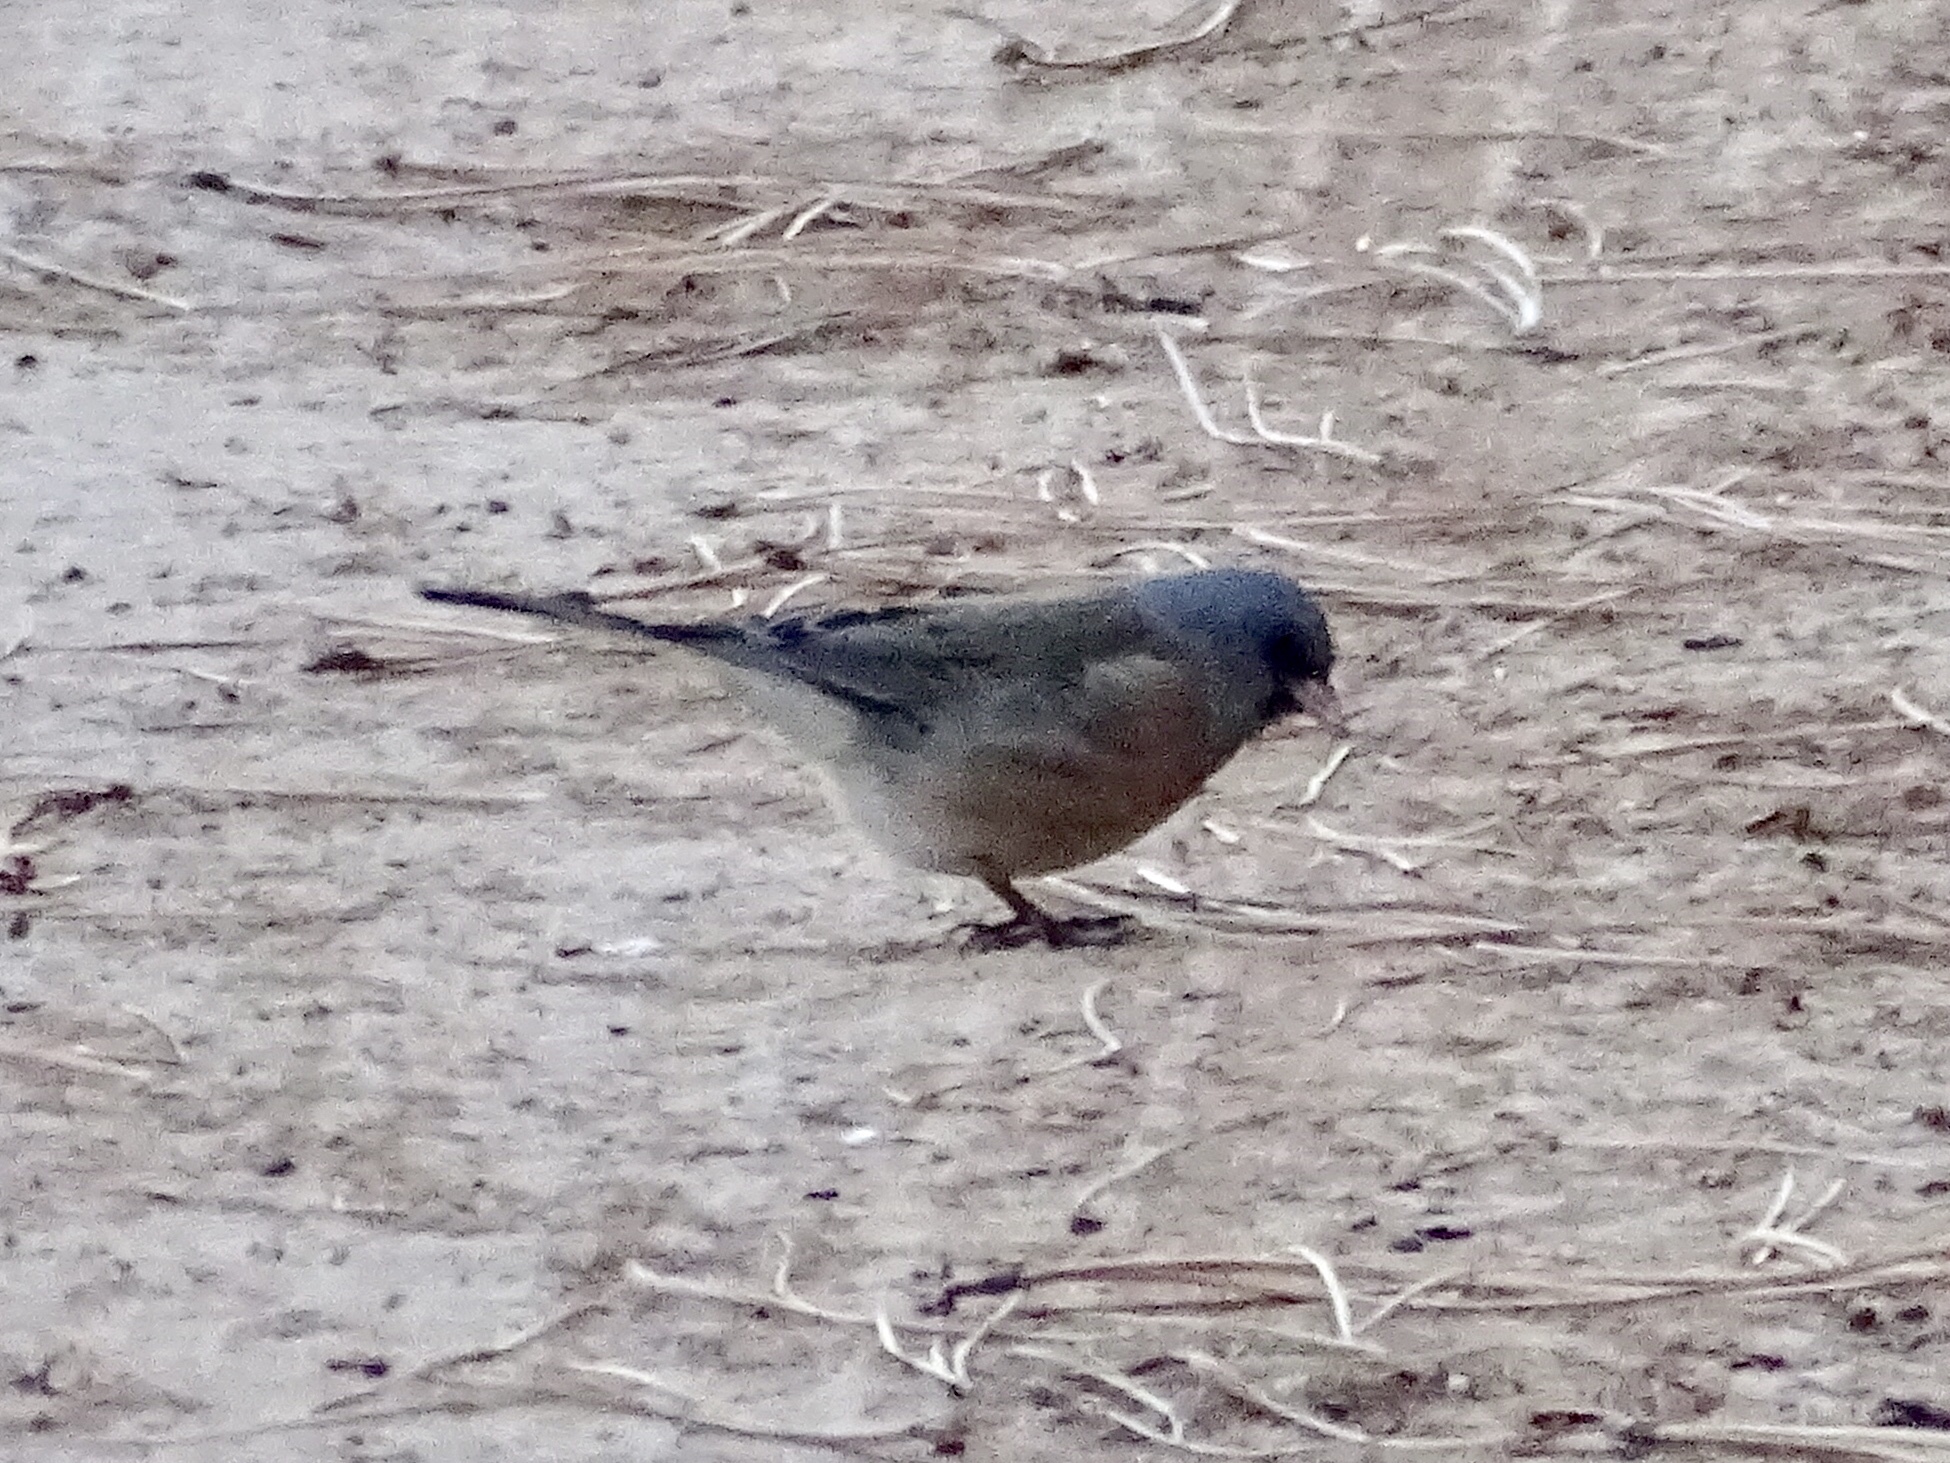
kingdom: Animalia
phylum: Chordata
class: Aves
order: Passeriformes
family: Passerellidae
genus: Junco
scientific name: Junco hyemalis
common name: Dark-eyed junco
